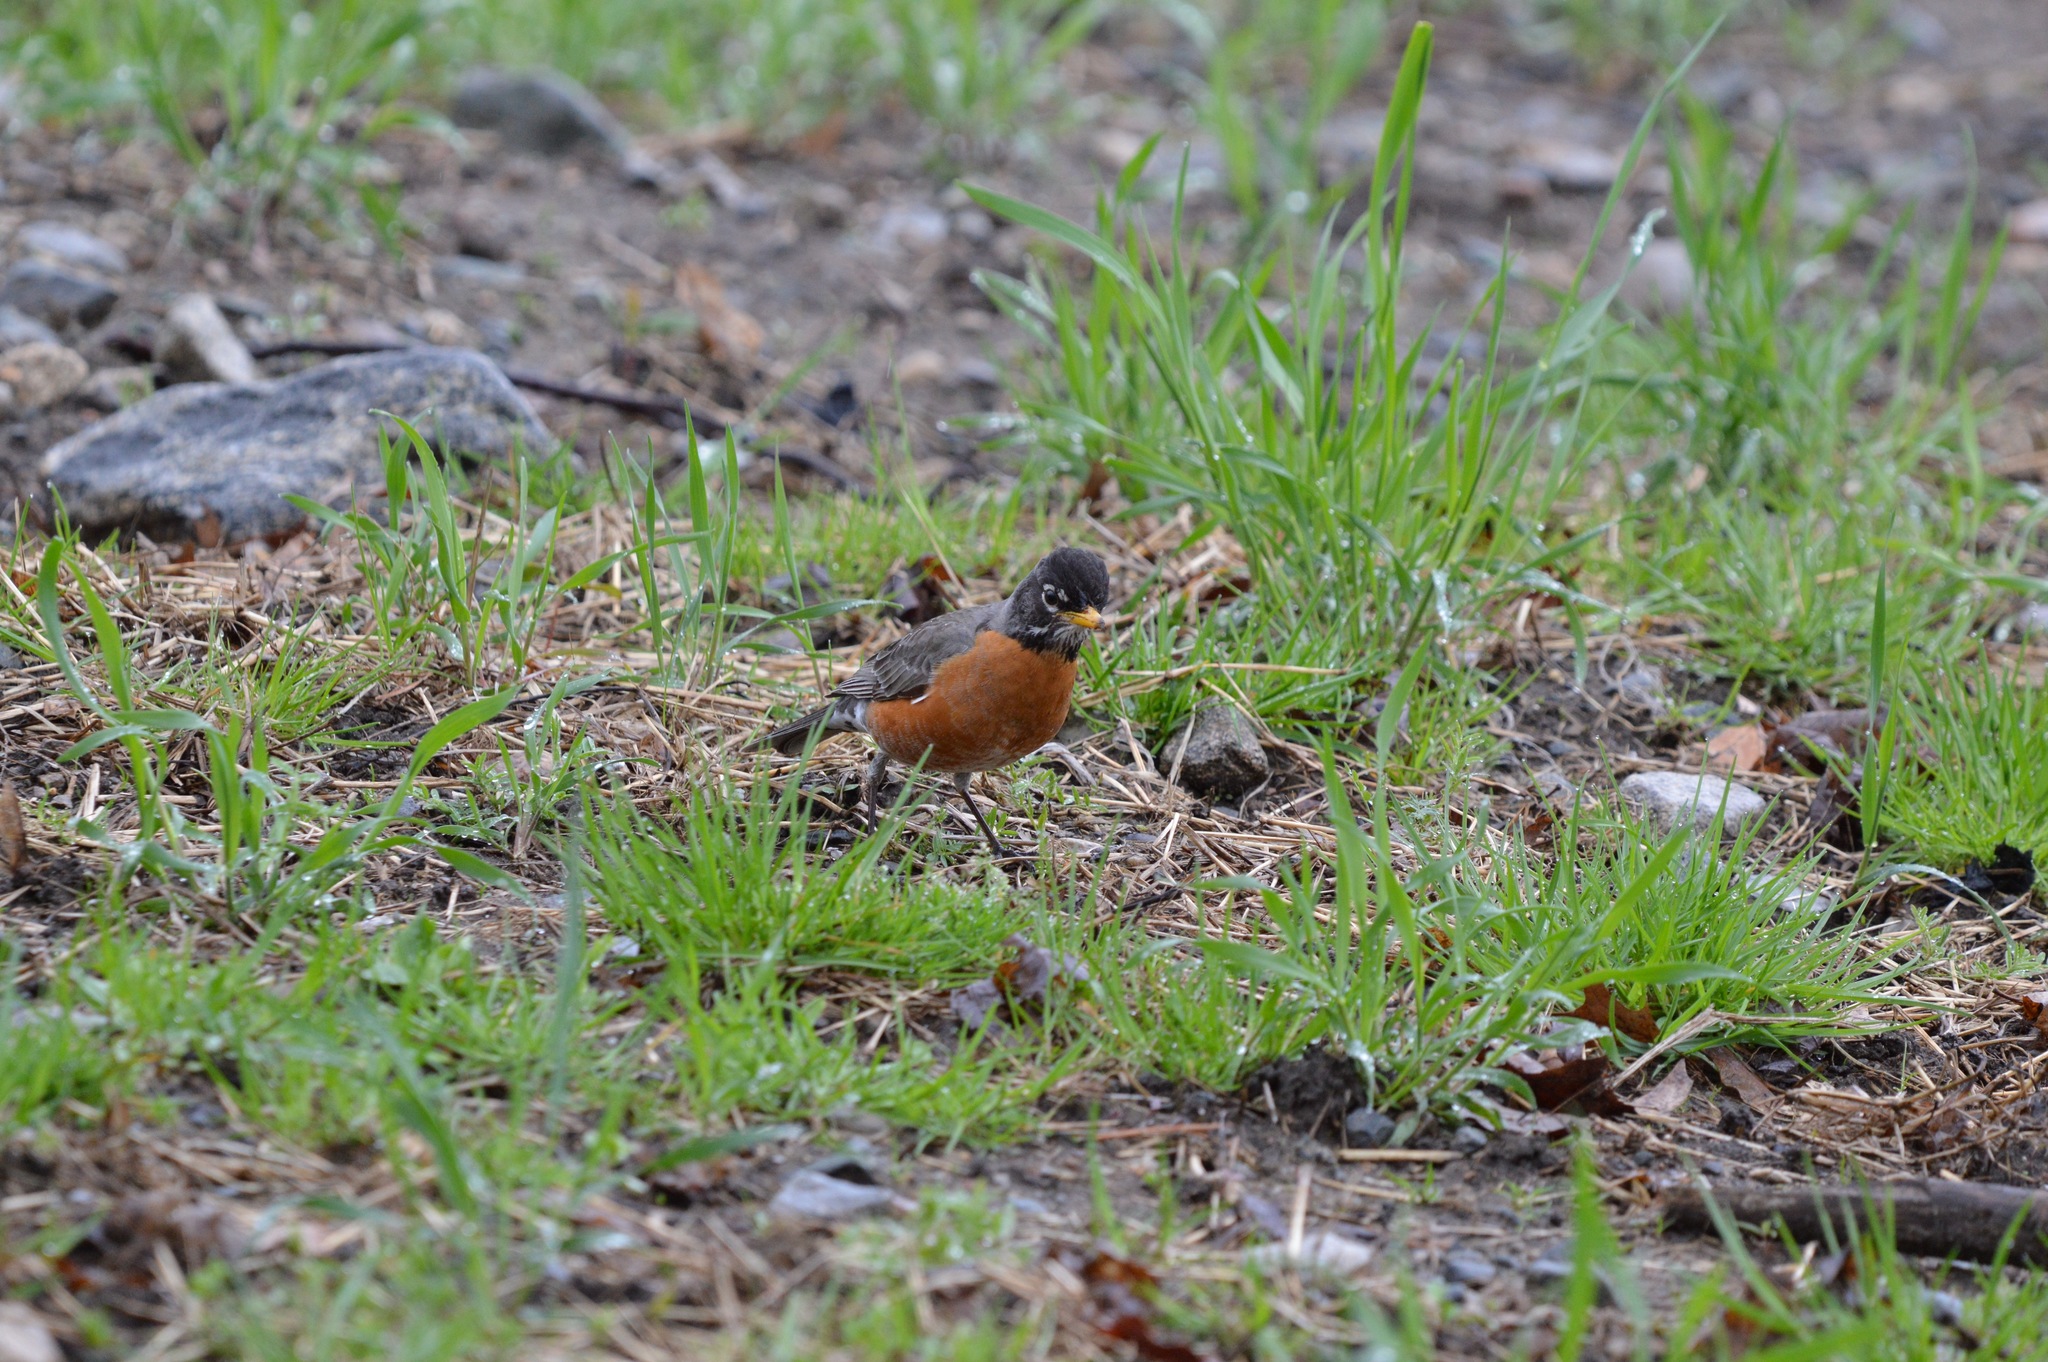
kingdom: Animalia
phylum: Chordata
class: Aves
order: Passeriformes
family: Turdidae
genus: Turdus
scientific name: Turdus migratorius
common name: American robin
